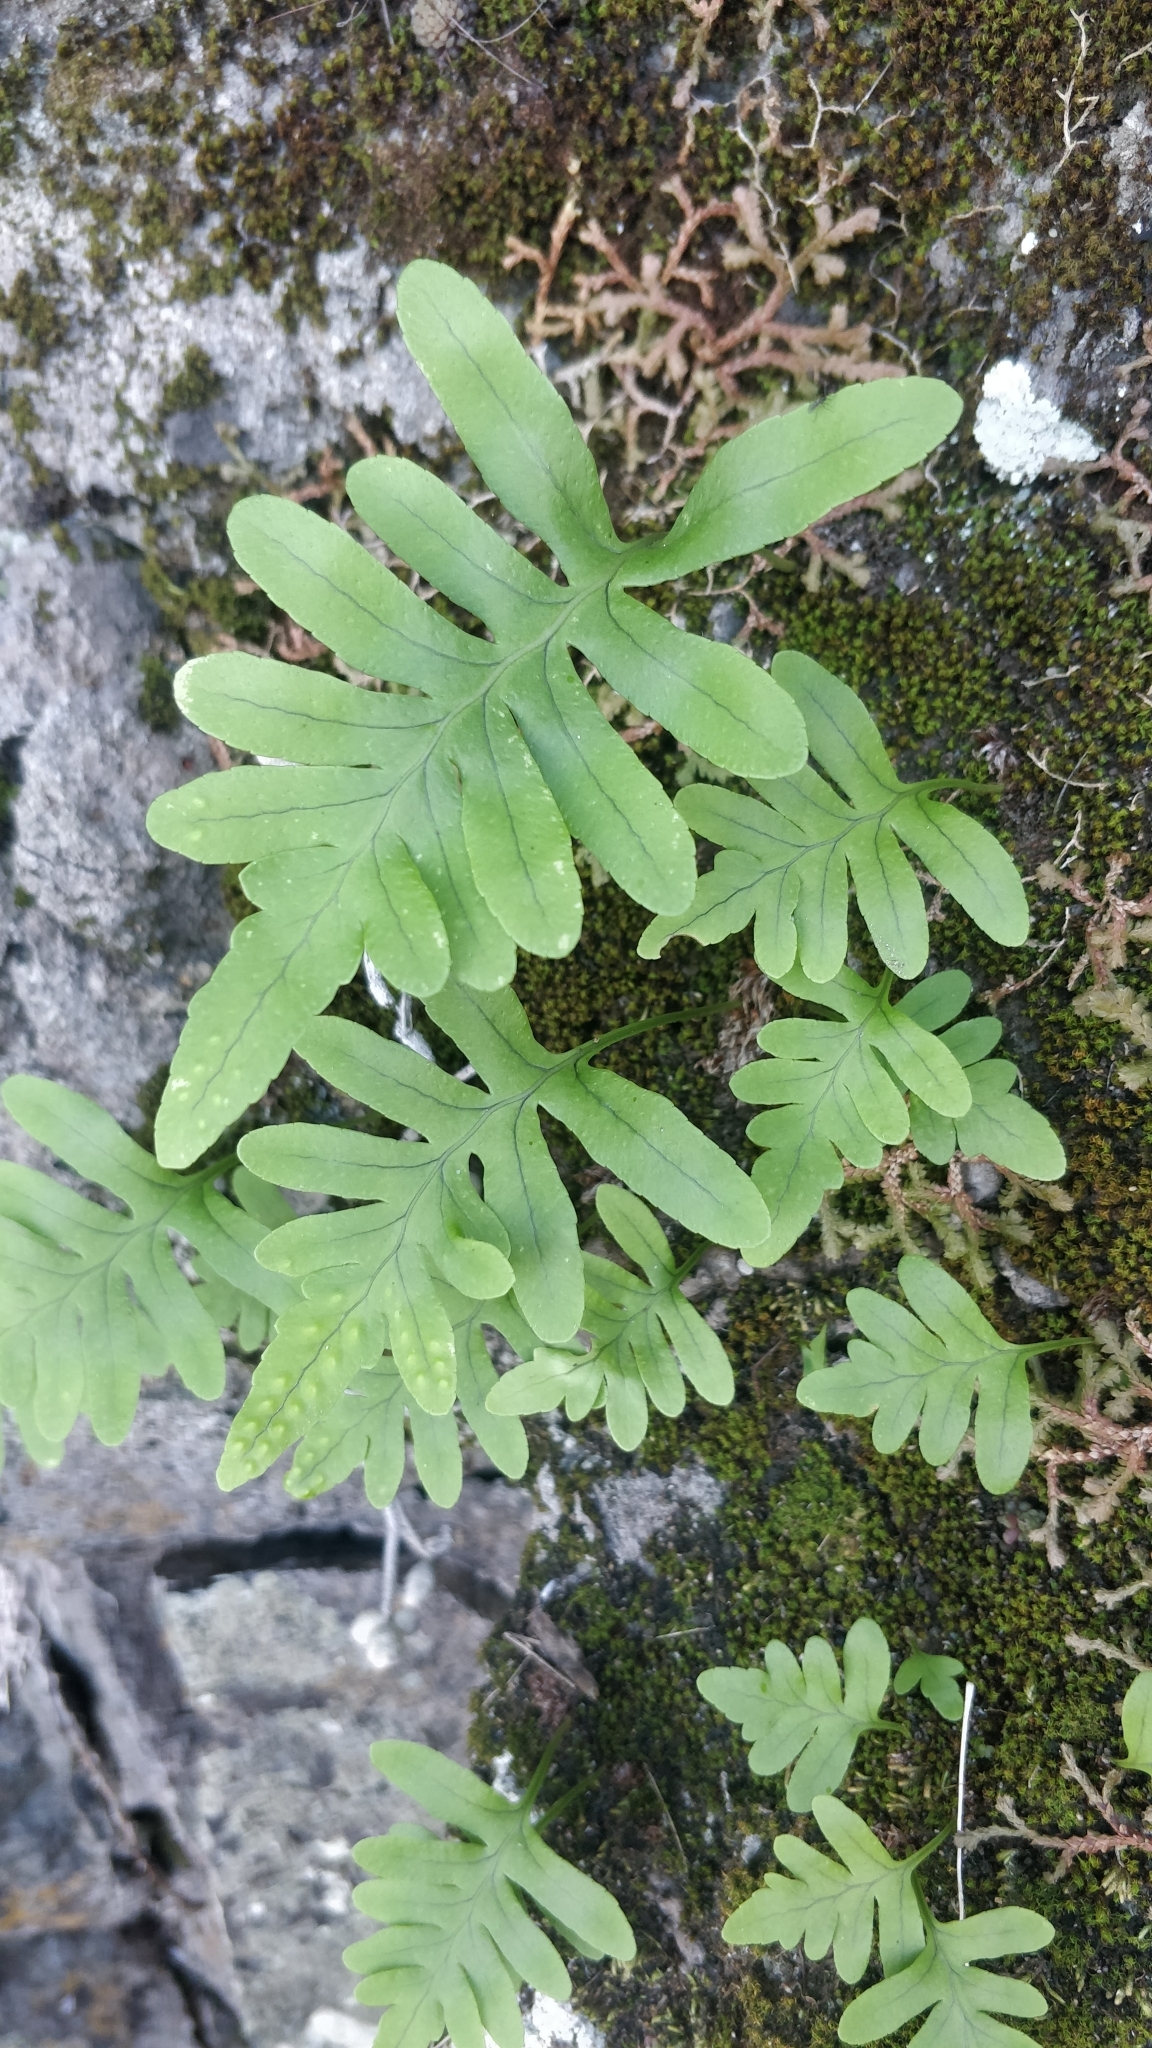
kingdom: Plantae
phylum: Tracheophyta
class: Polypodiopsida
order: Polypodiales
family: Polypodiaceae
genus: Polypodium
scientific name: Polypodium macaronesicum
